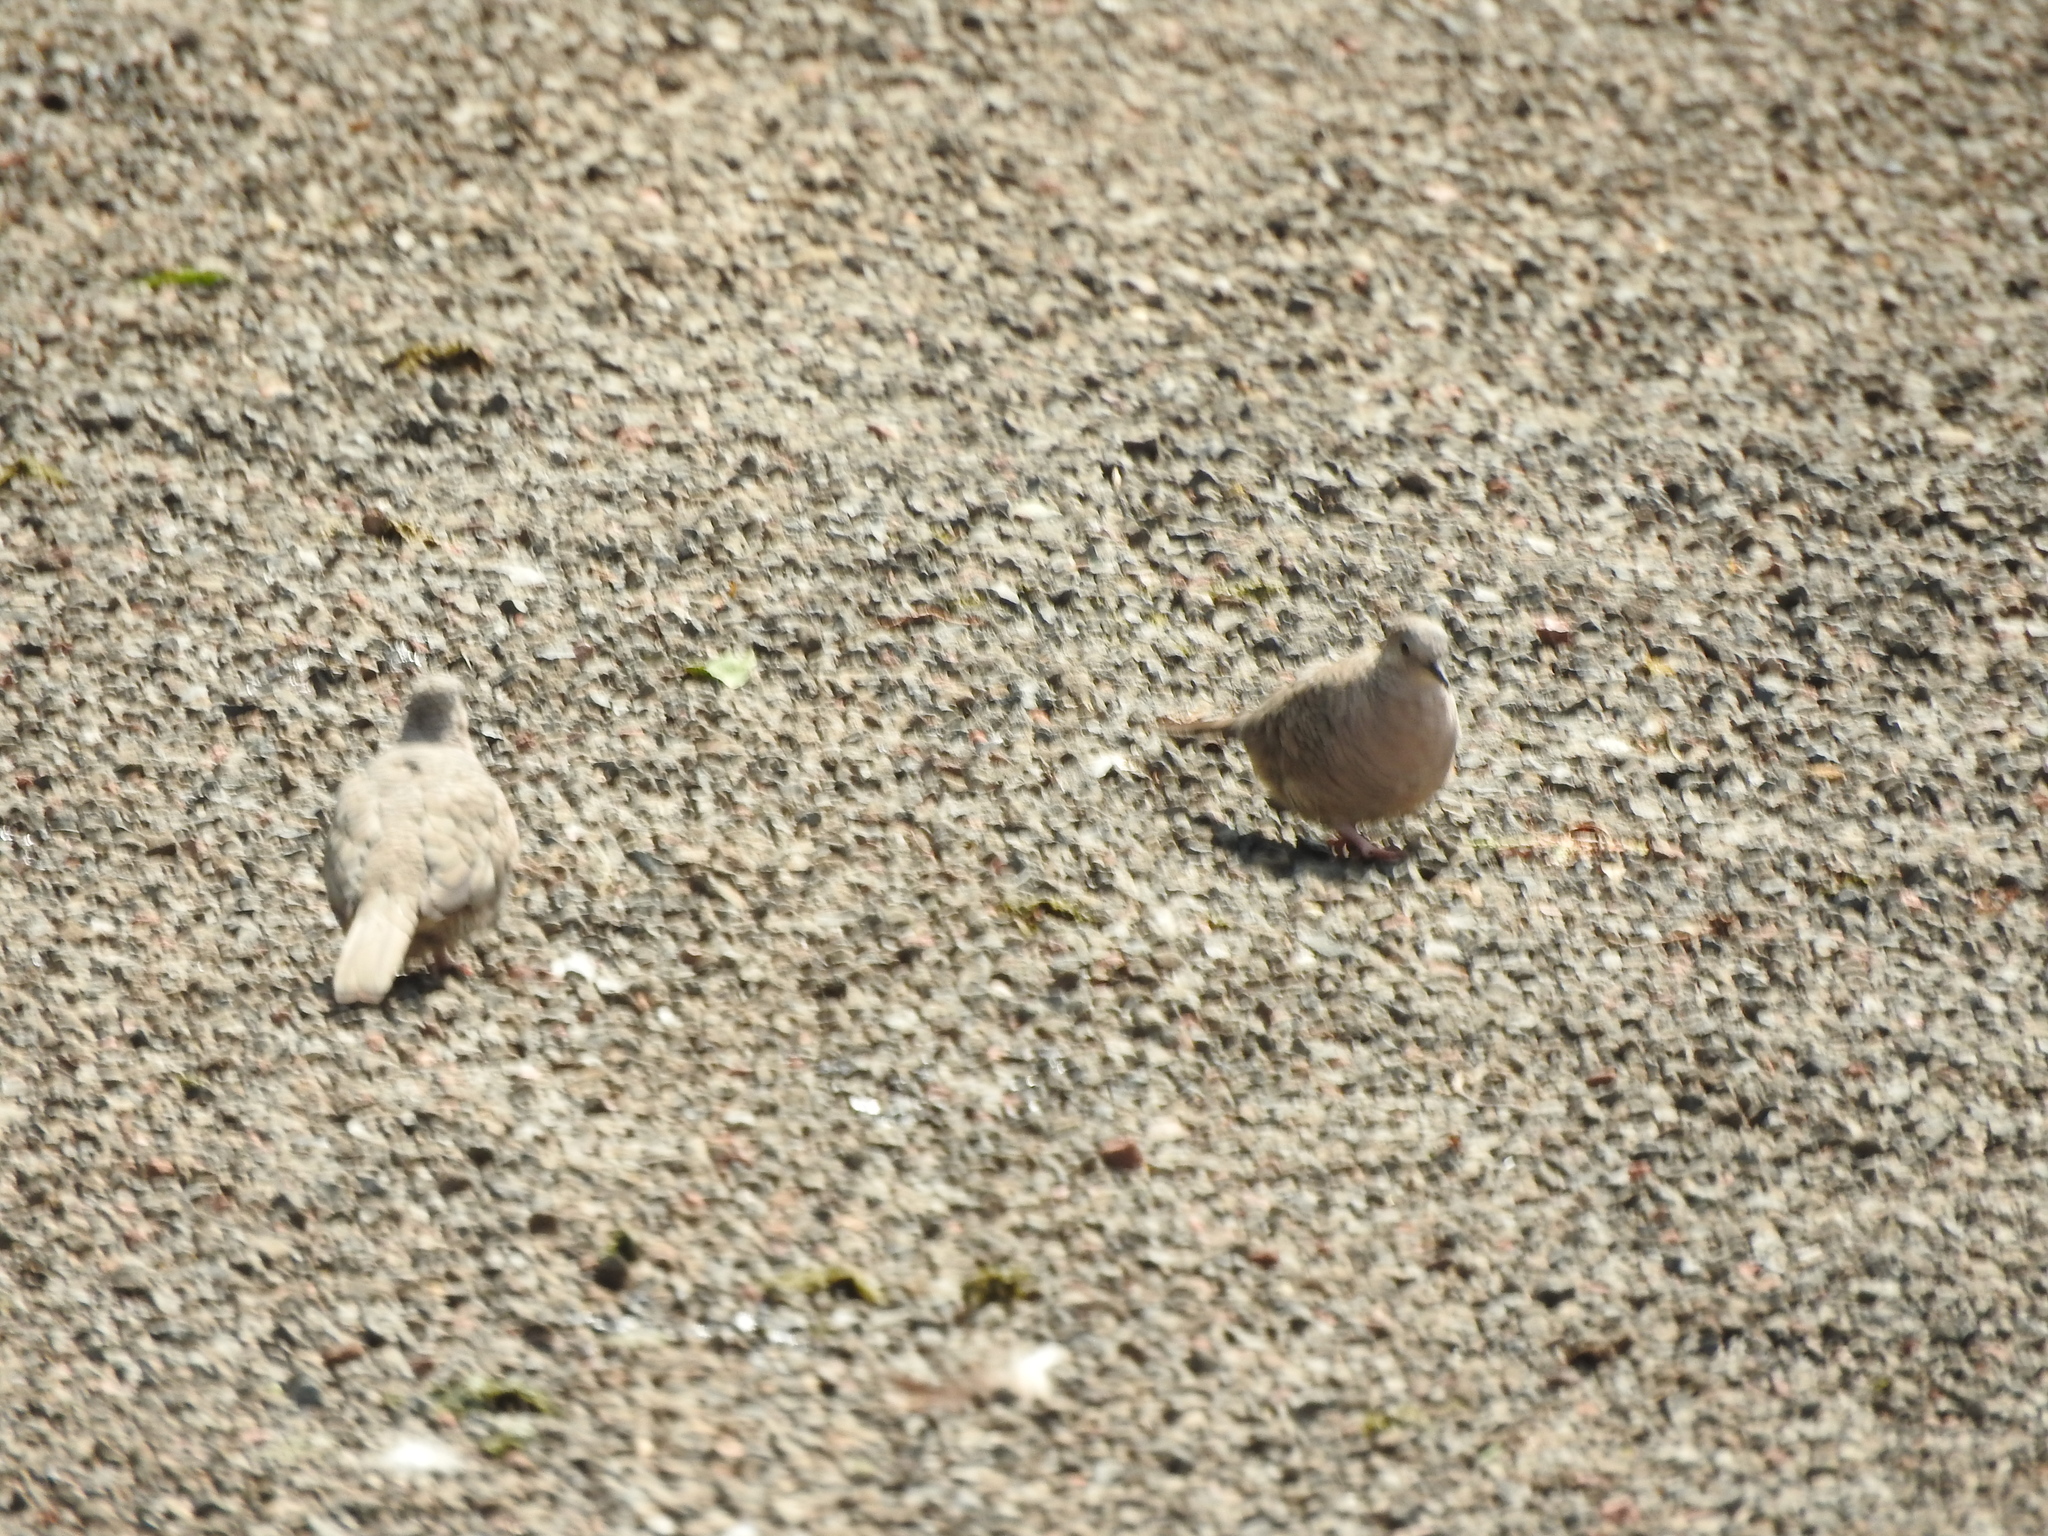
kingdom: Animalia
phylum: Chordata
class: Aves
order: Columbiformes
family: Columbidae
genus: Columbina
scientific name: Columbina inca
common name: Inca dove
